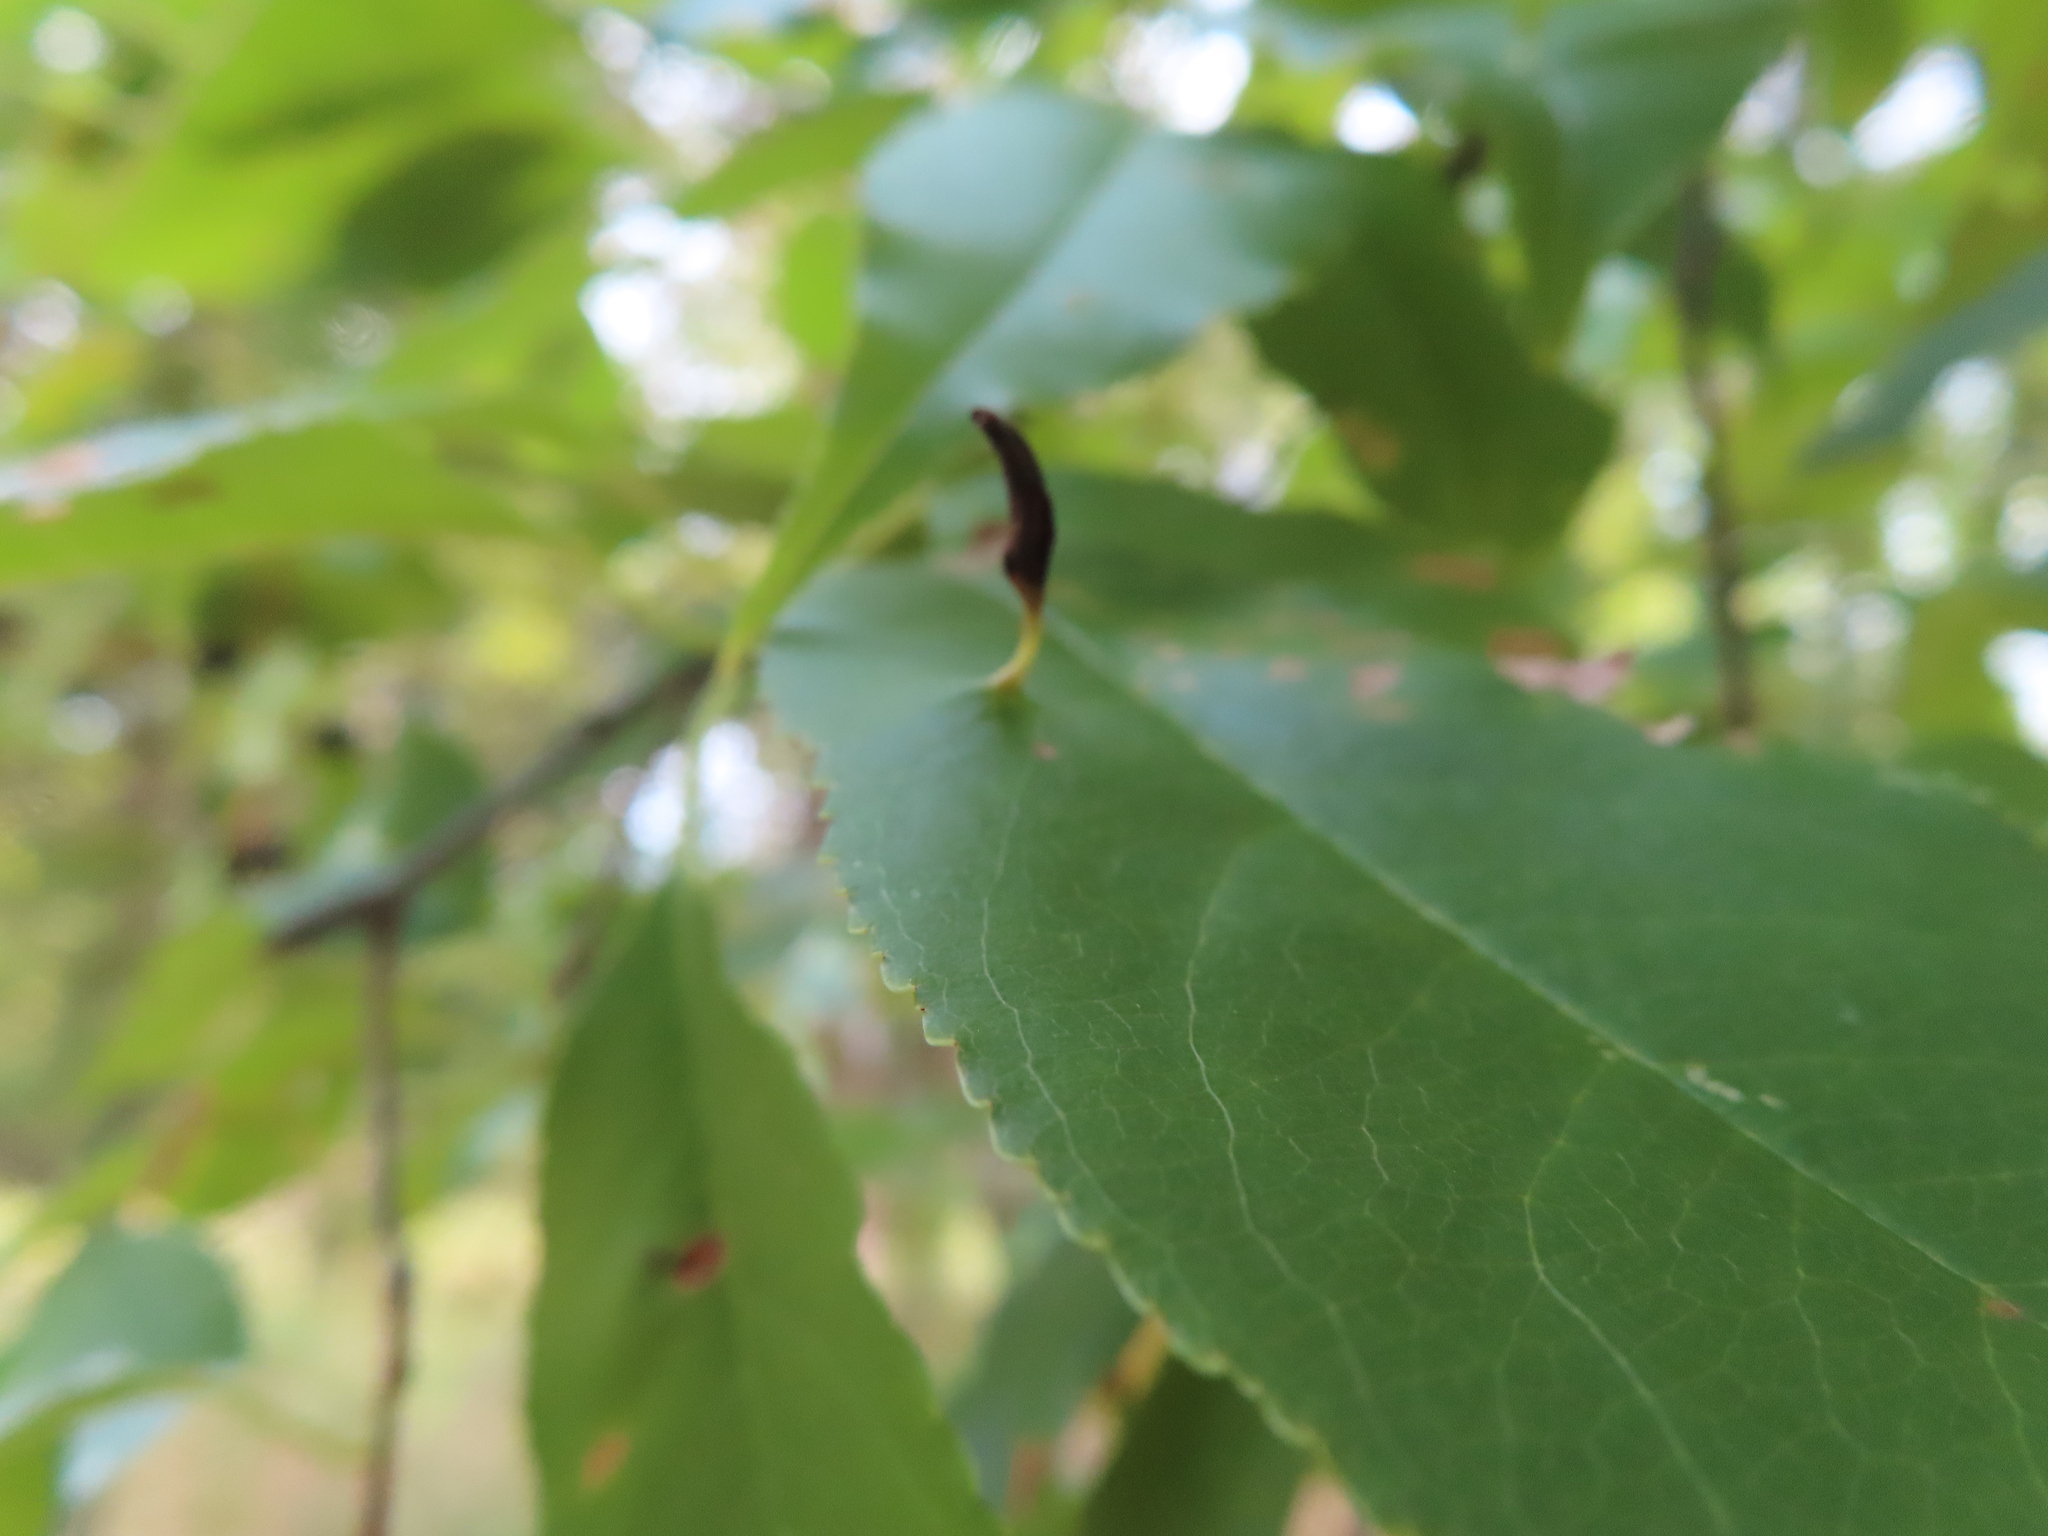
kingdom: Animalia
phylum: Arthropoda
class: Arachnida
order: Trombidiformes
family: Eriophyidae
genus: Eriophyes
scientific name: Eriophyes
